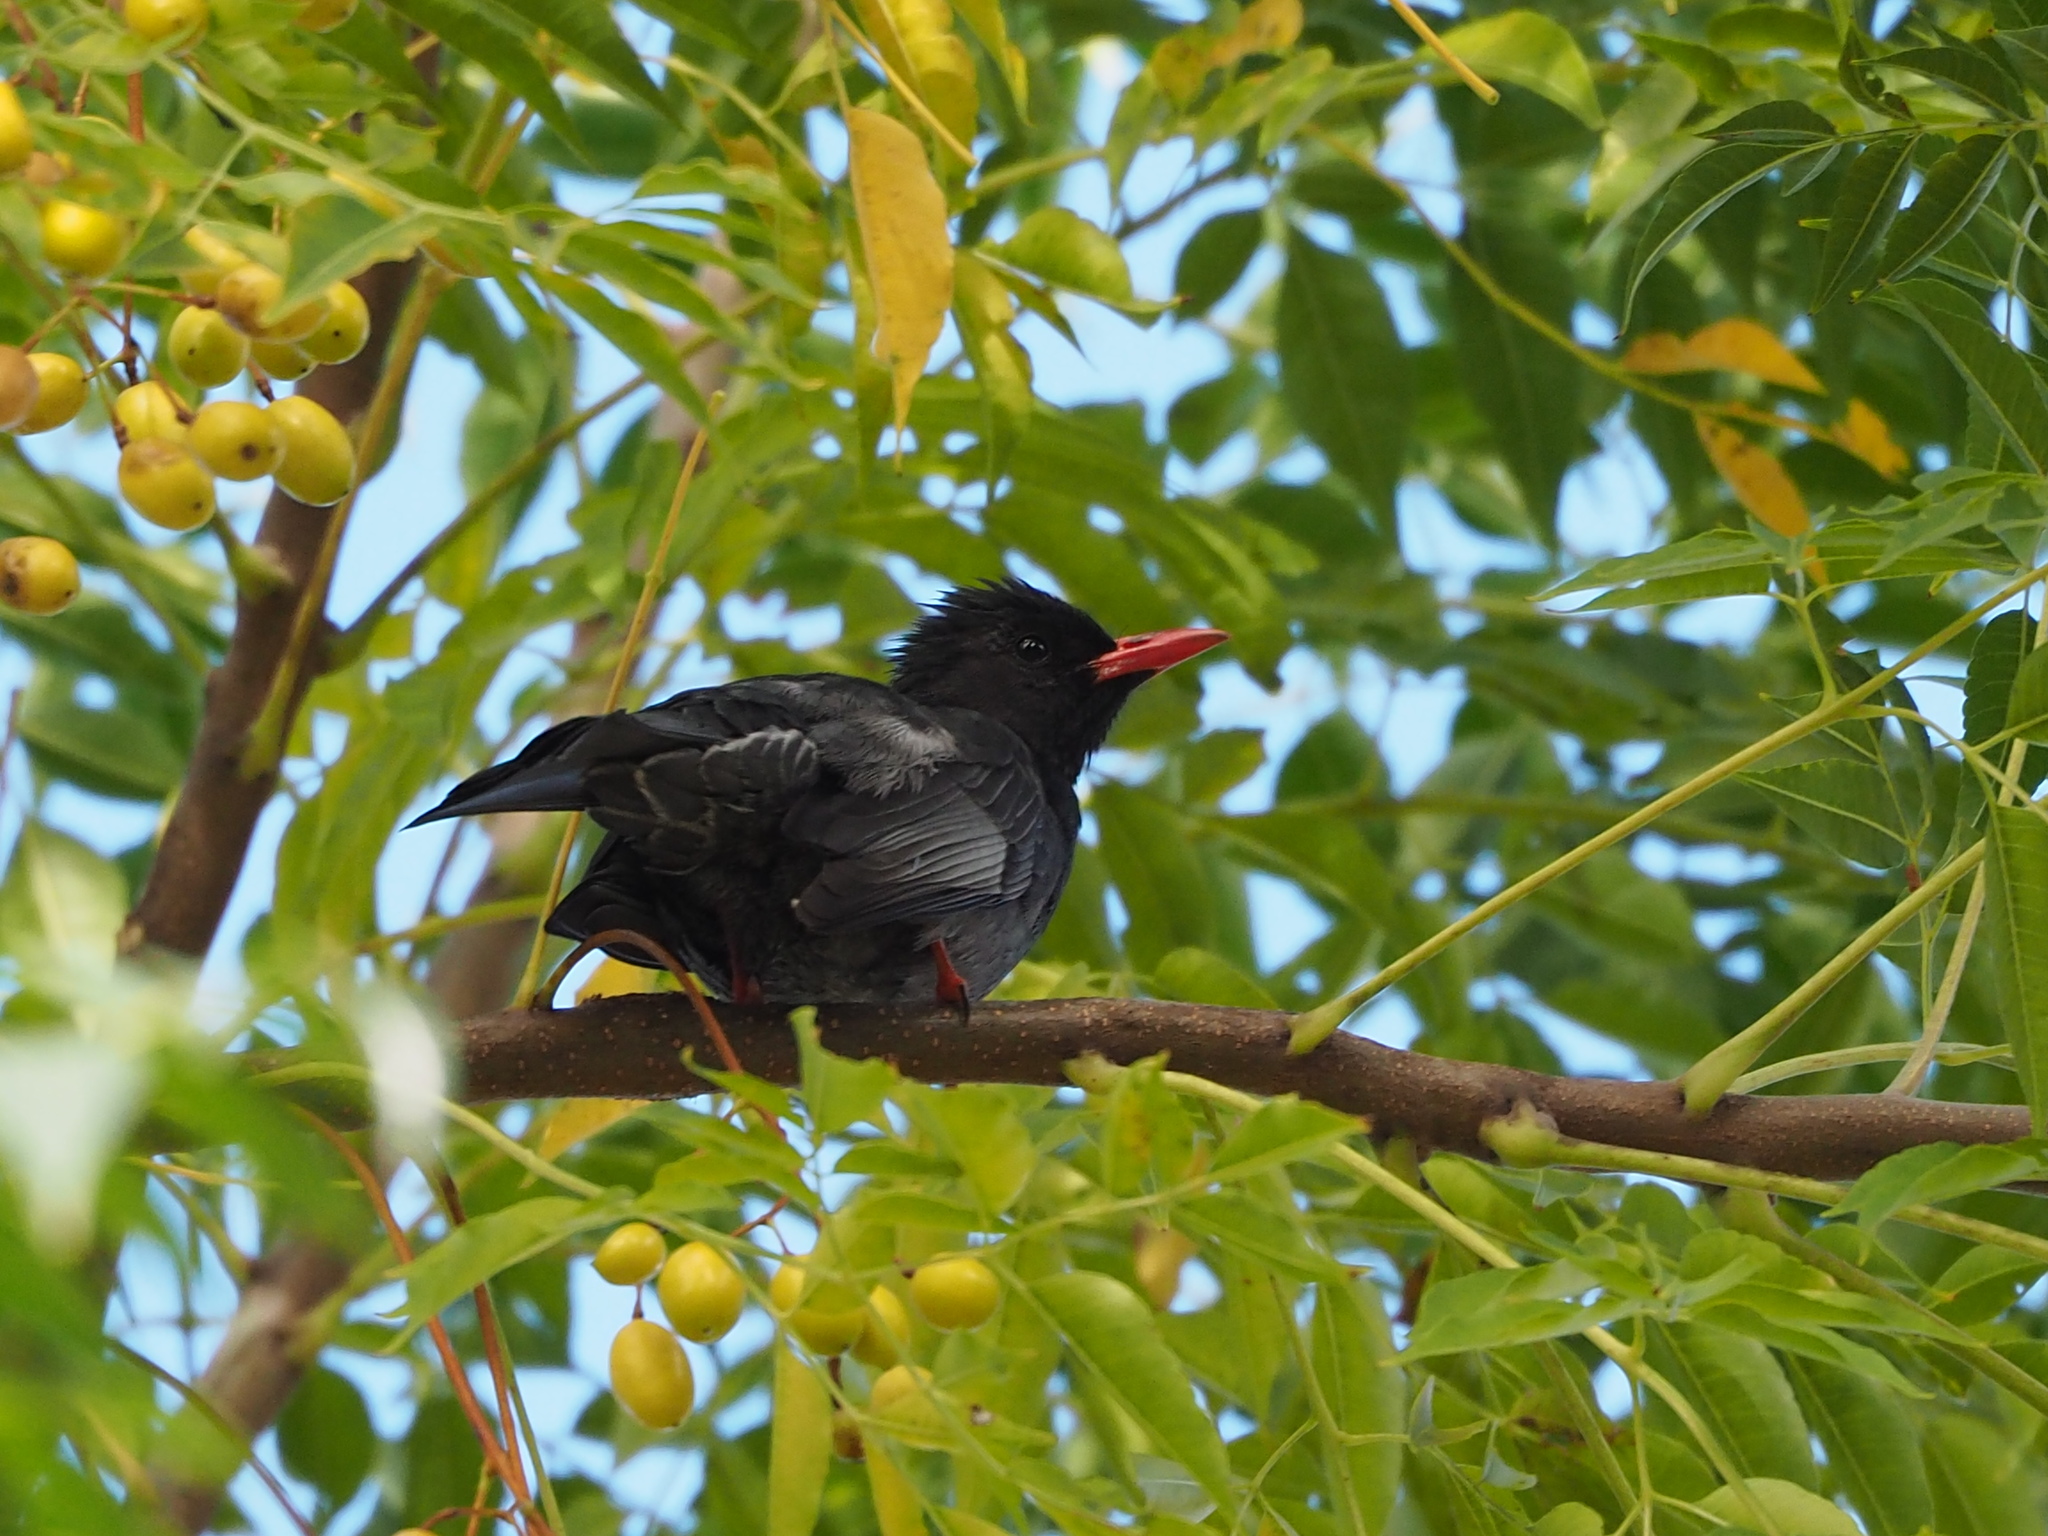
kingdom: Animalia
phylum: Chordata
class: Aves
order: Passeriformes
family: Pycnonotidae
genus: Hypsipetes
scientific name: Hypsipetes leucocephalus
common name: Black bulbul
